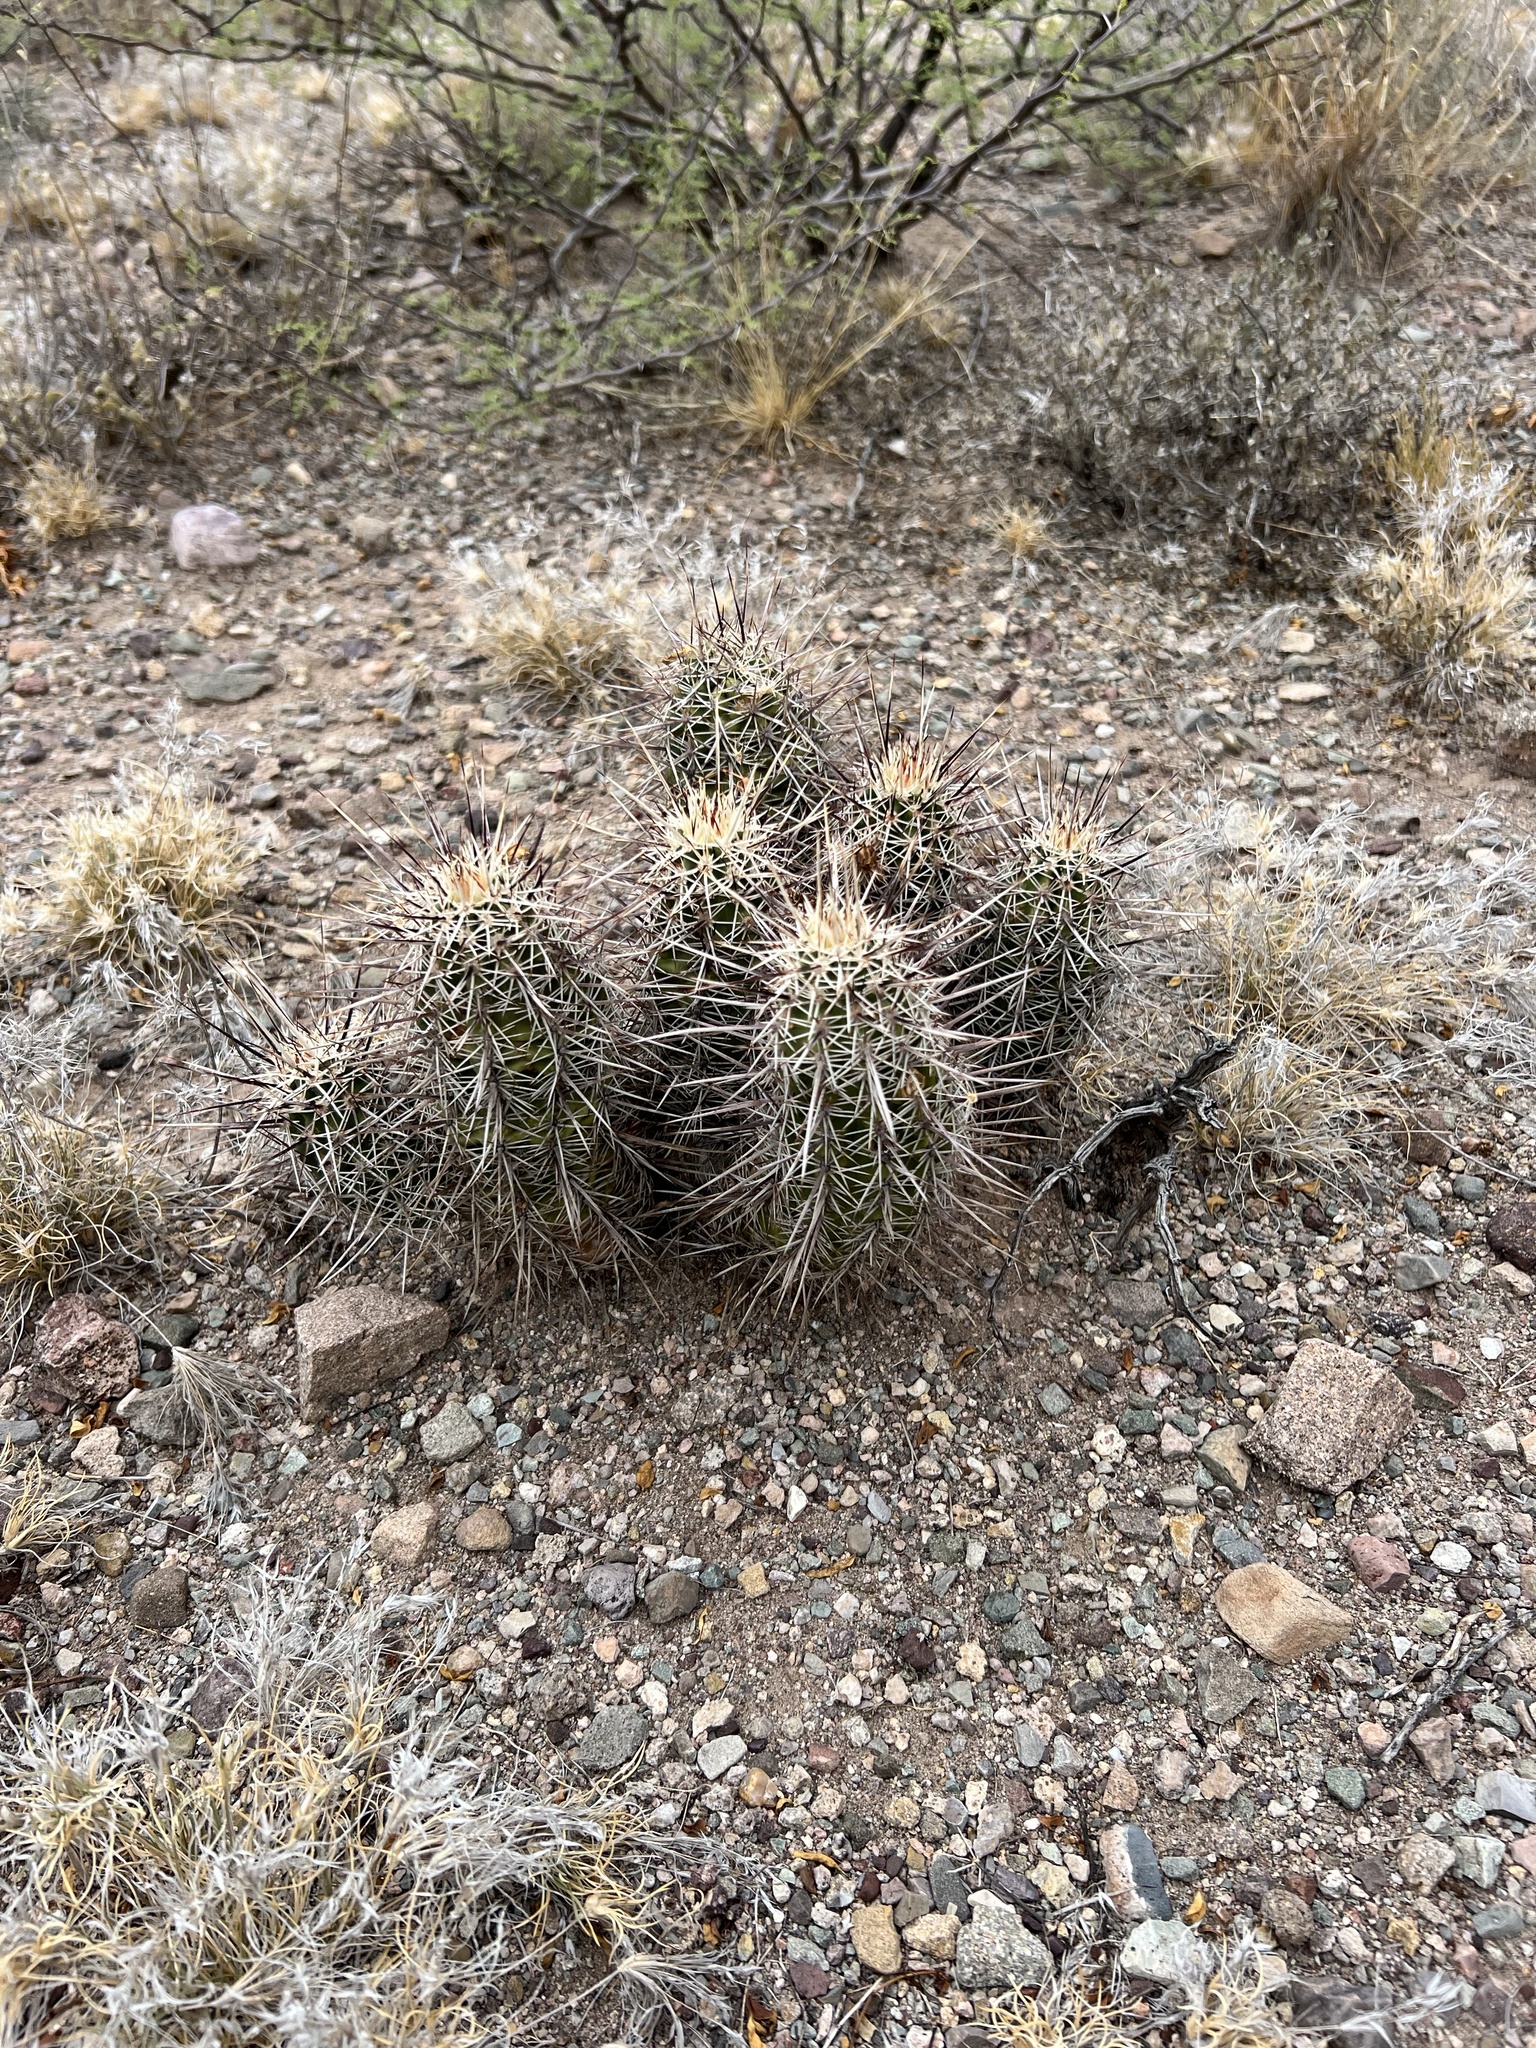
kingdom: Plantae
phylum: Tracheophyta
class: Magnoliopsida
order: Caryophyllales
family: Cactaceae
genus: Echinocereus
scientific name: Echinocereus fasciculatus
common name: Bundle hedgehog
